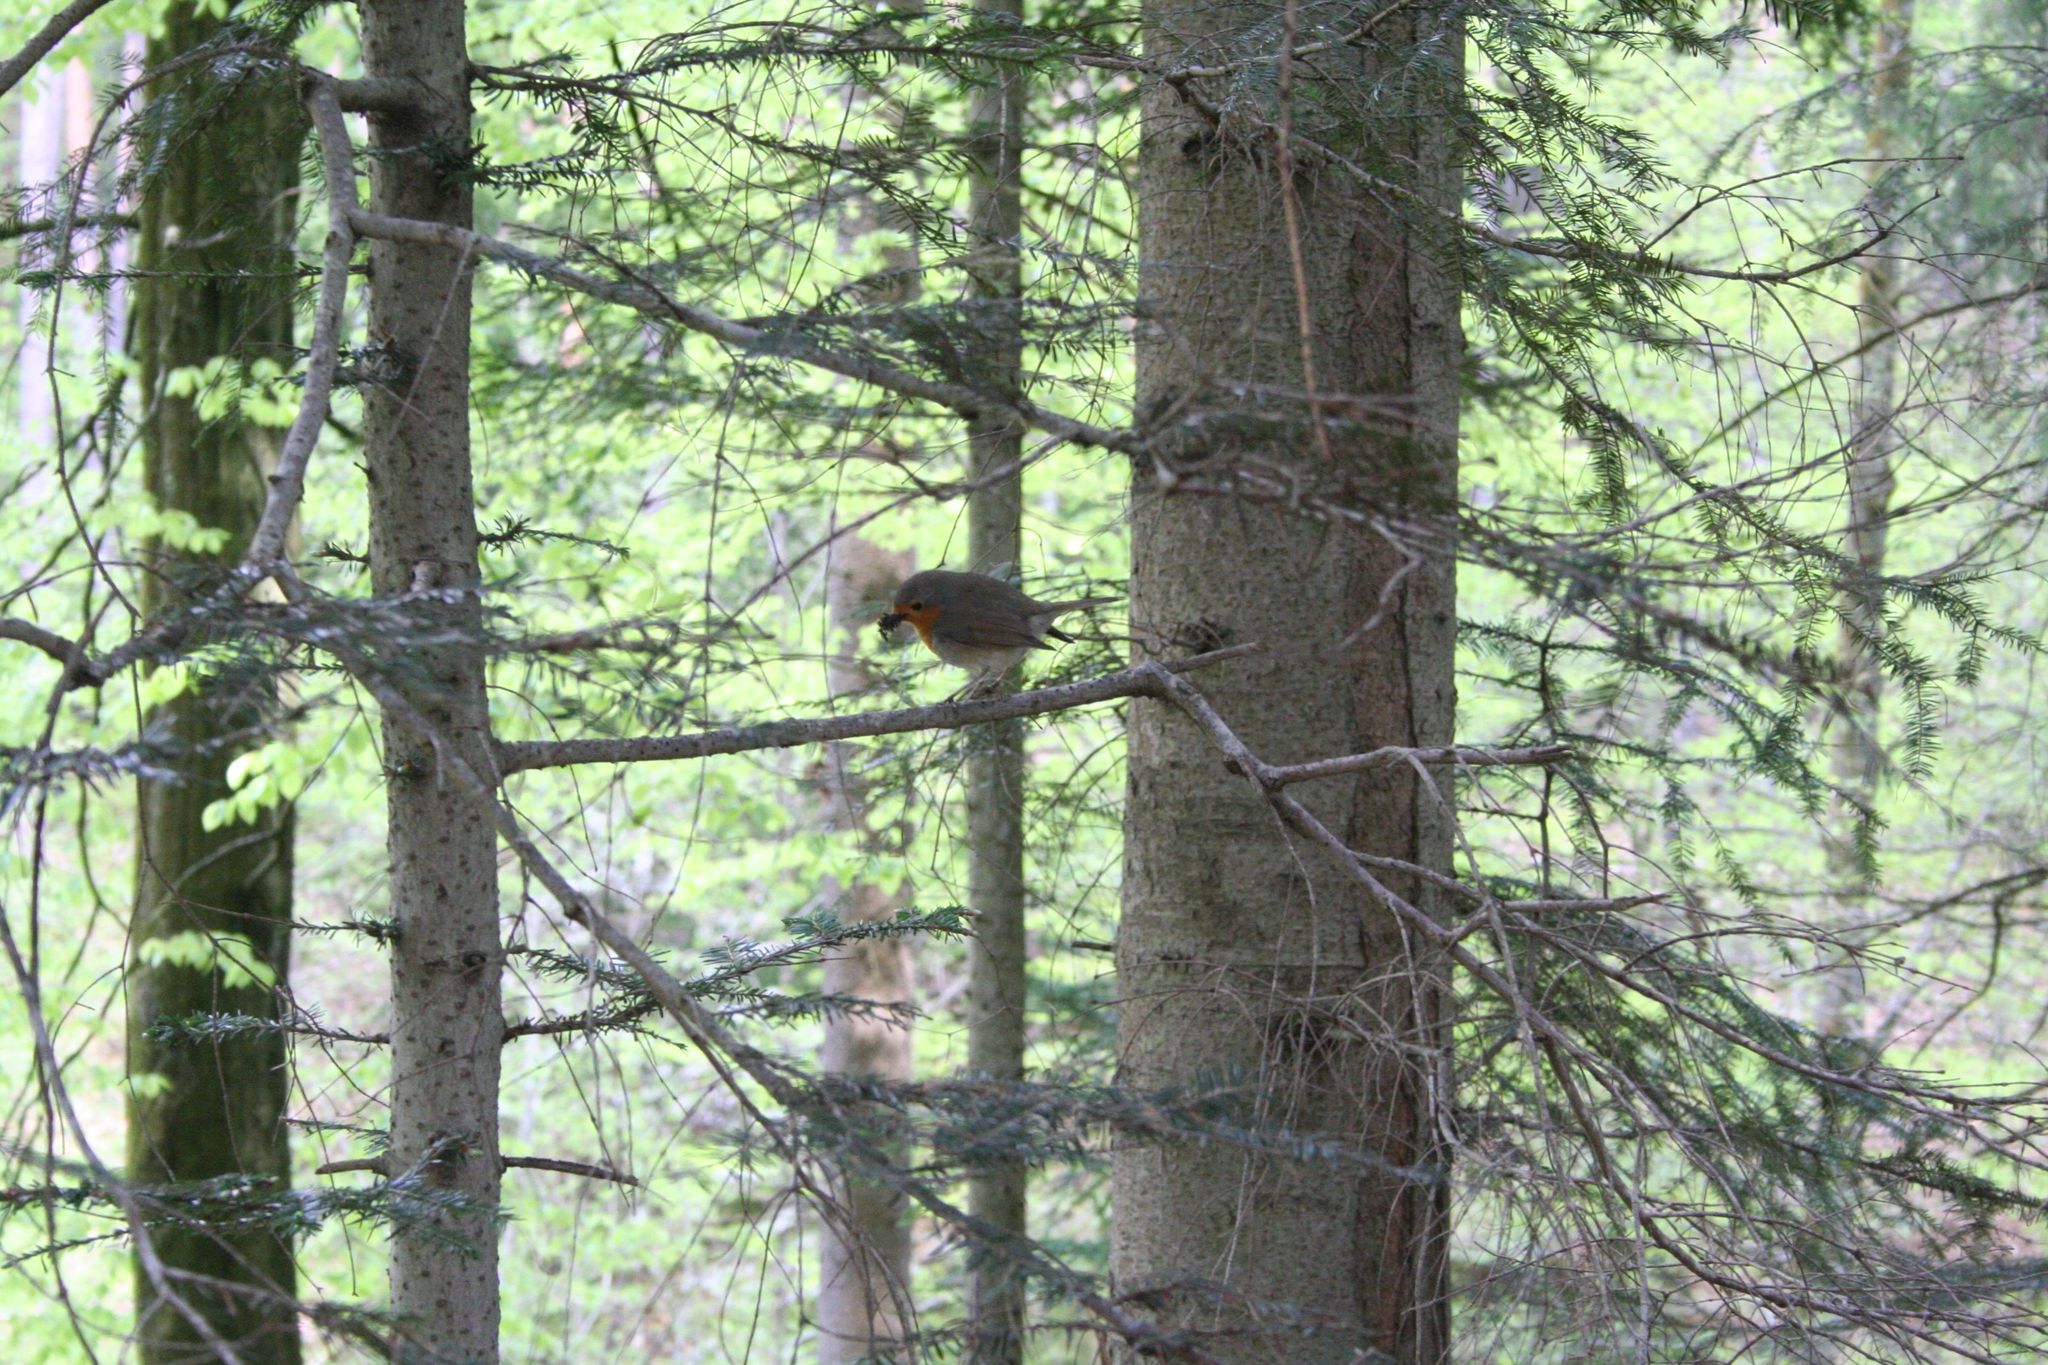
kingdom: Animalia
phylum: Chordata
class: Aves
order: Passeriformes
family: Muscicapidae
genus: Erithacus
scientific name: Erithacus rubecula
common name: European robin
